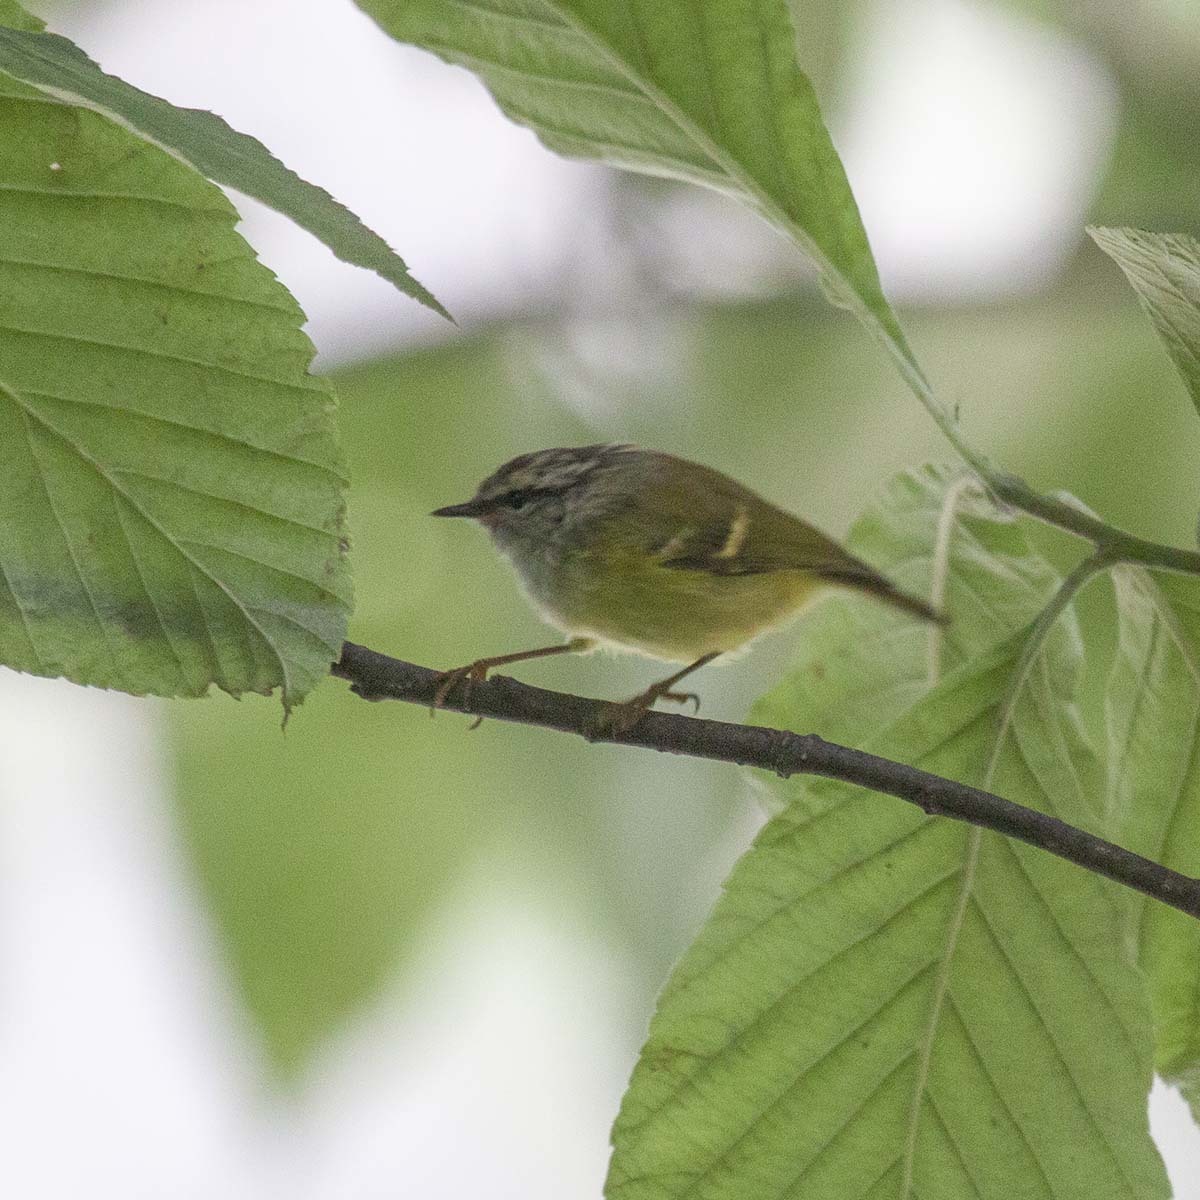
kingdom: Animalia
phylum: Chordata
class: Aves
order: Passeriformes
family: Phylloscopidae
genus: Phylloscopus
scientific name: Phylloscopus maculipennis
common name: Ashy-throated warbler
